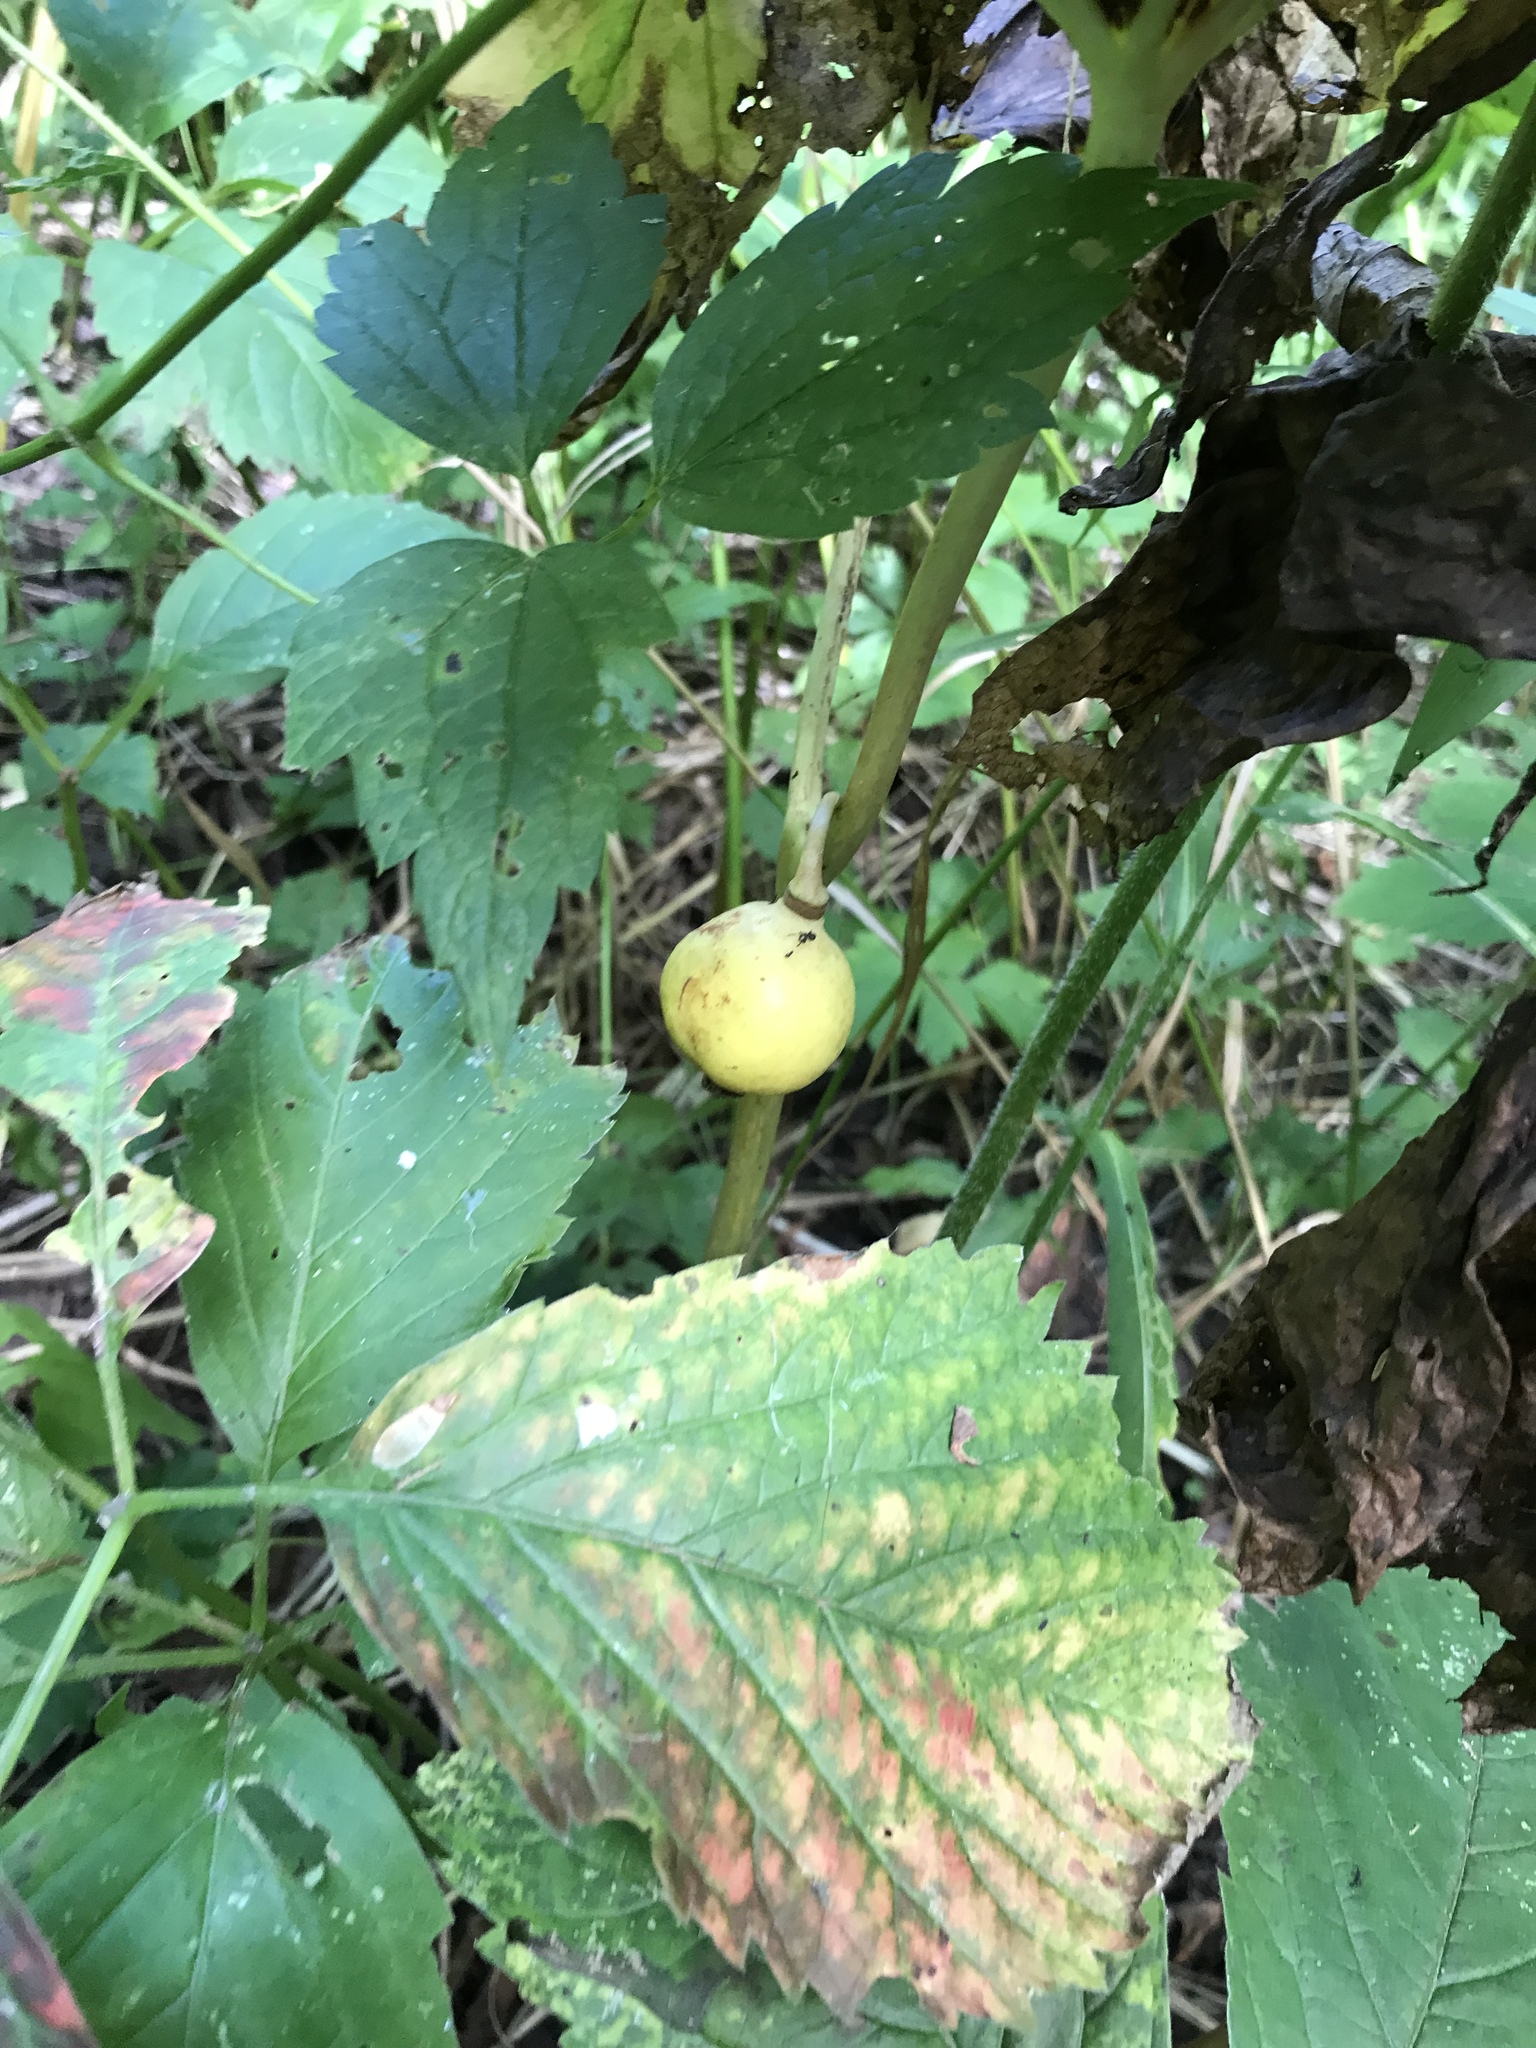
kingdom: Plantae
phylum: Tracheophyta
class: Magnoliopsida
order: Ranunculales
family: Berberidaceae
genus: Podophyllum
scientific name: Podophyllum peltatum
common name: Wild mandrake
